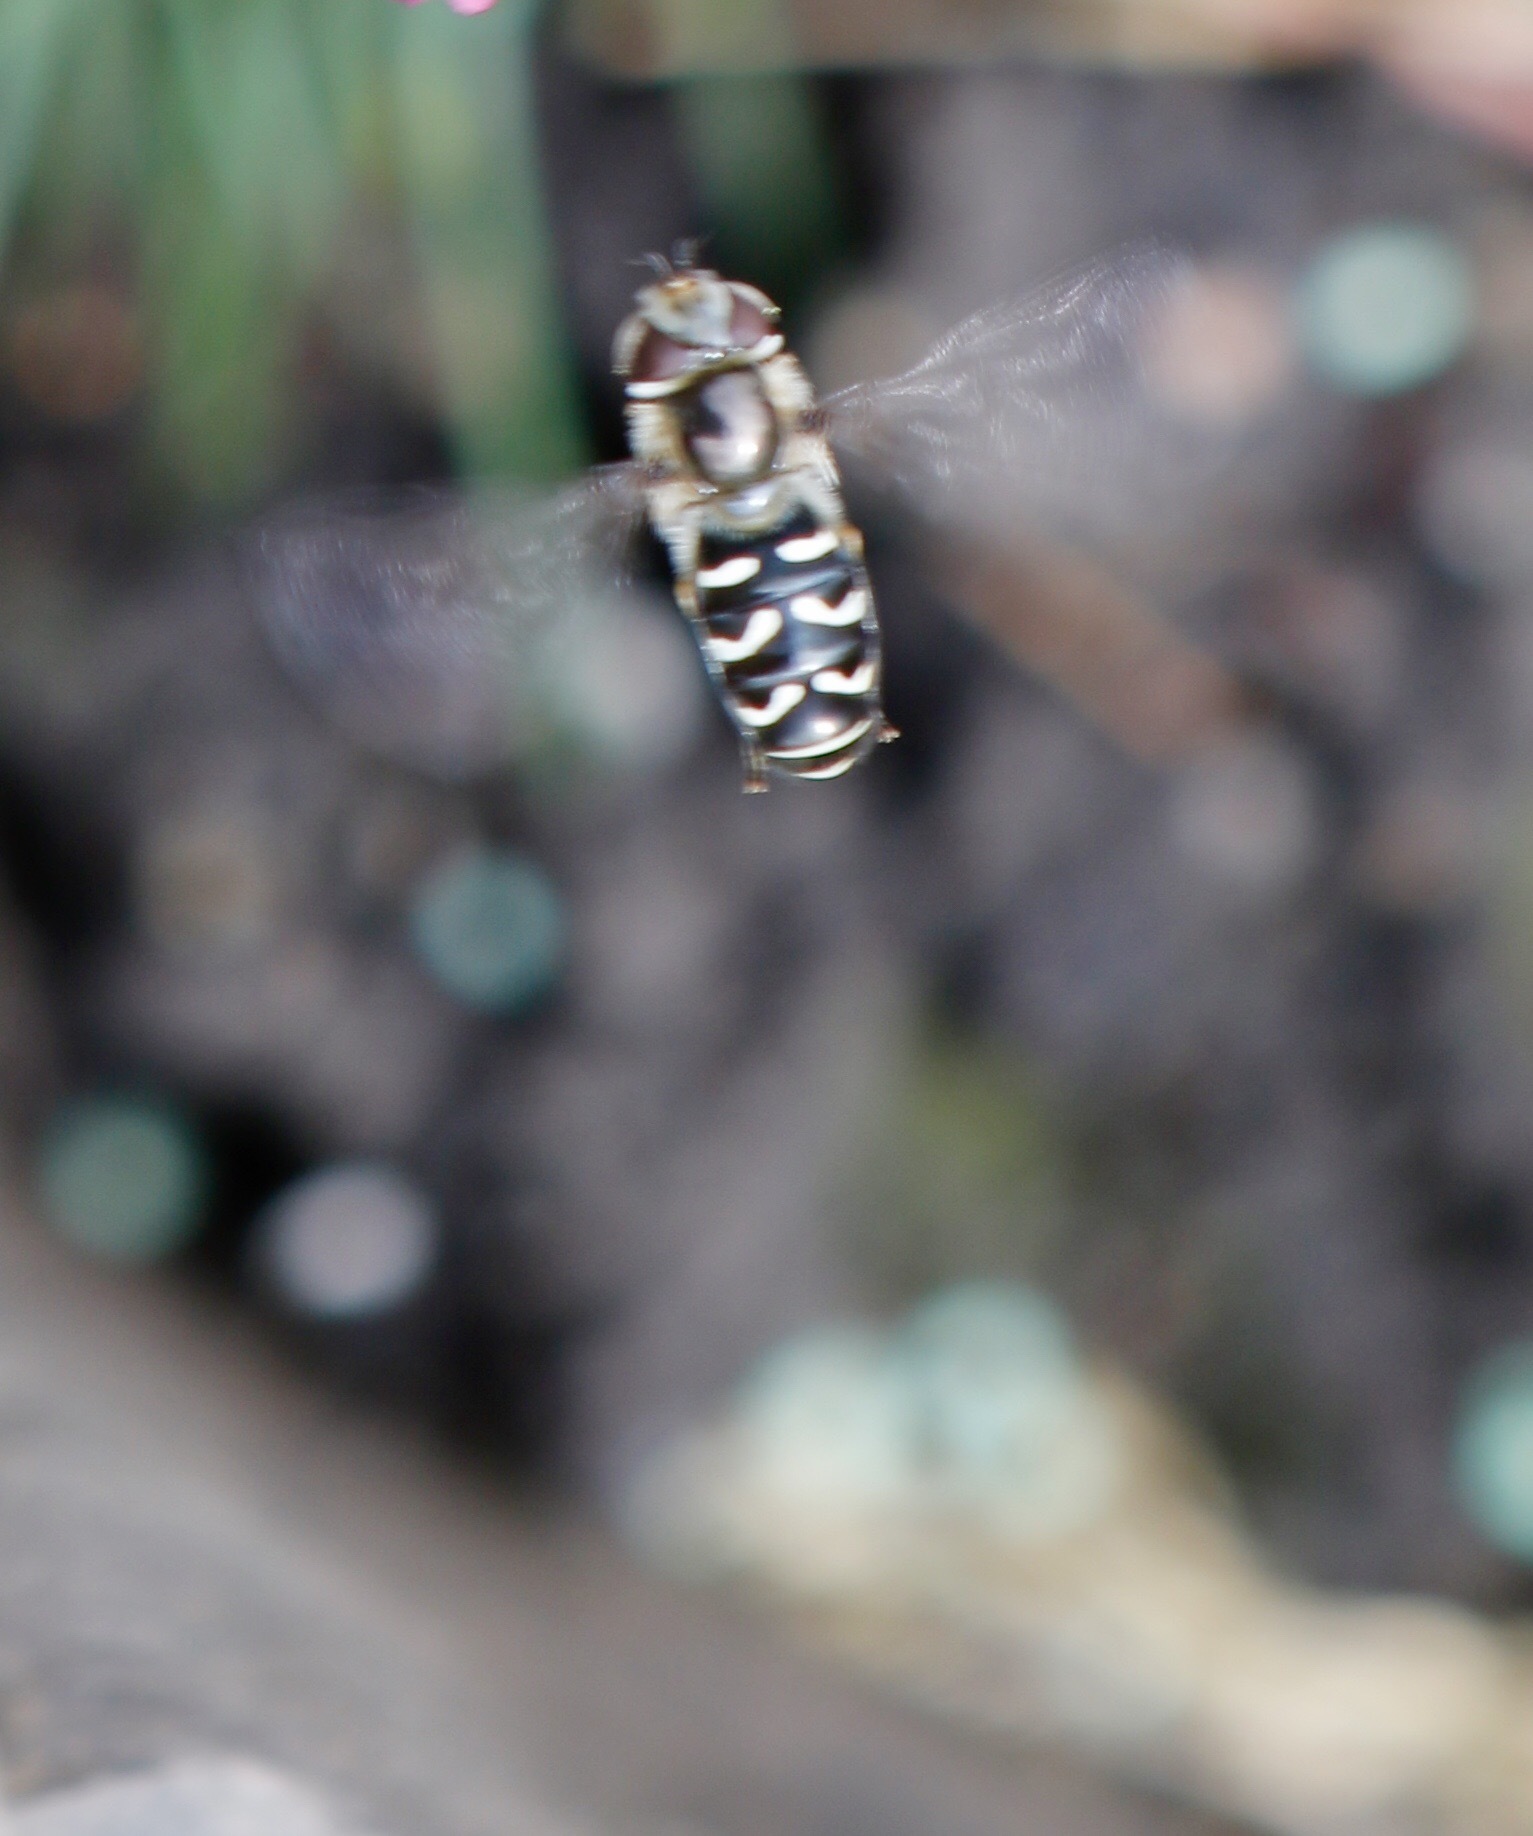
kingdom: Animalia
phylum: Arthropoda
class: Insecta
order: Diptera
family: Syrphidae
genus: Scaeva
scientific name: Scaeva affinis
